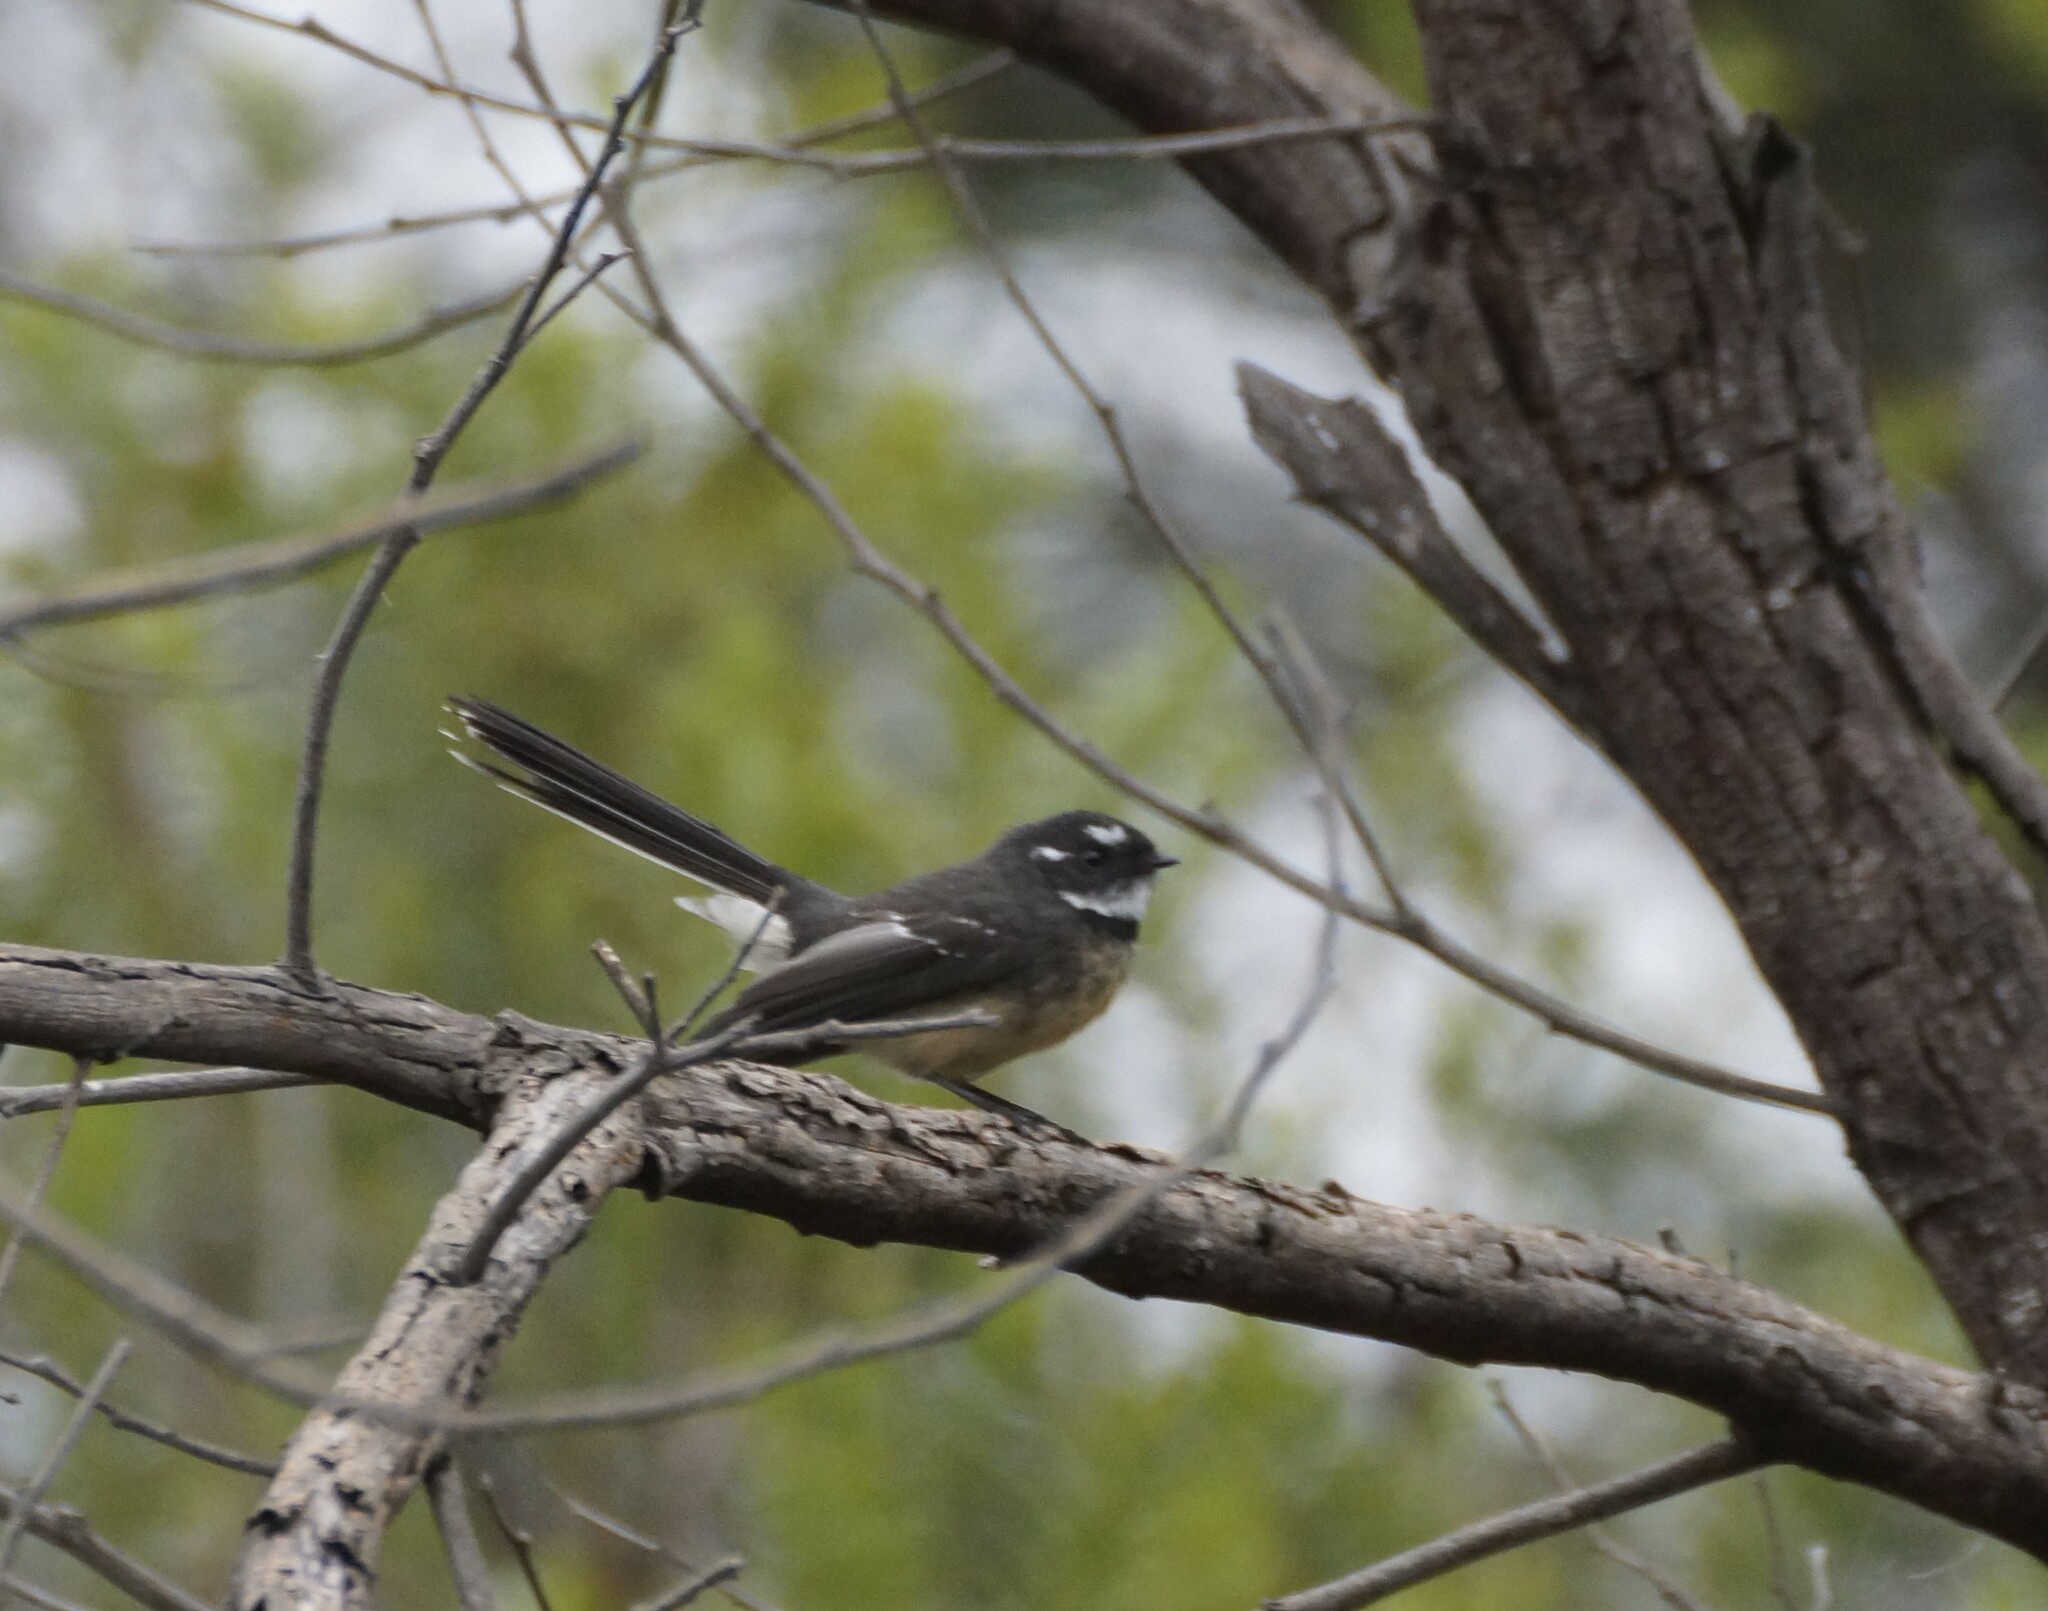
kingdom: Animalia
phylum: Chordata
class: Aves
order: Passeriformes
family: Rhipiduridae
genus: Rhipidura
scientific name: Rhipidura albiscapa
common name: Grey fantail
